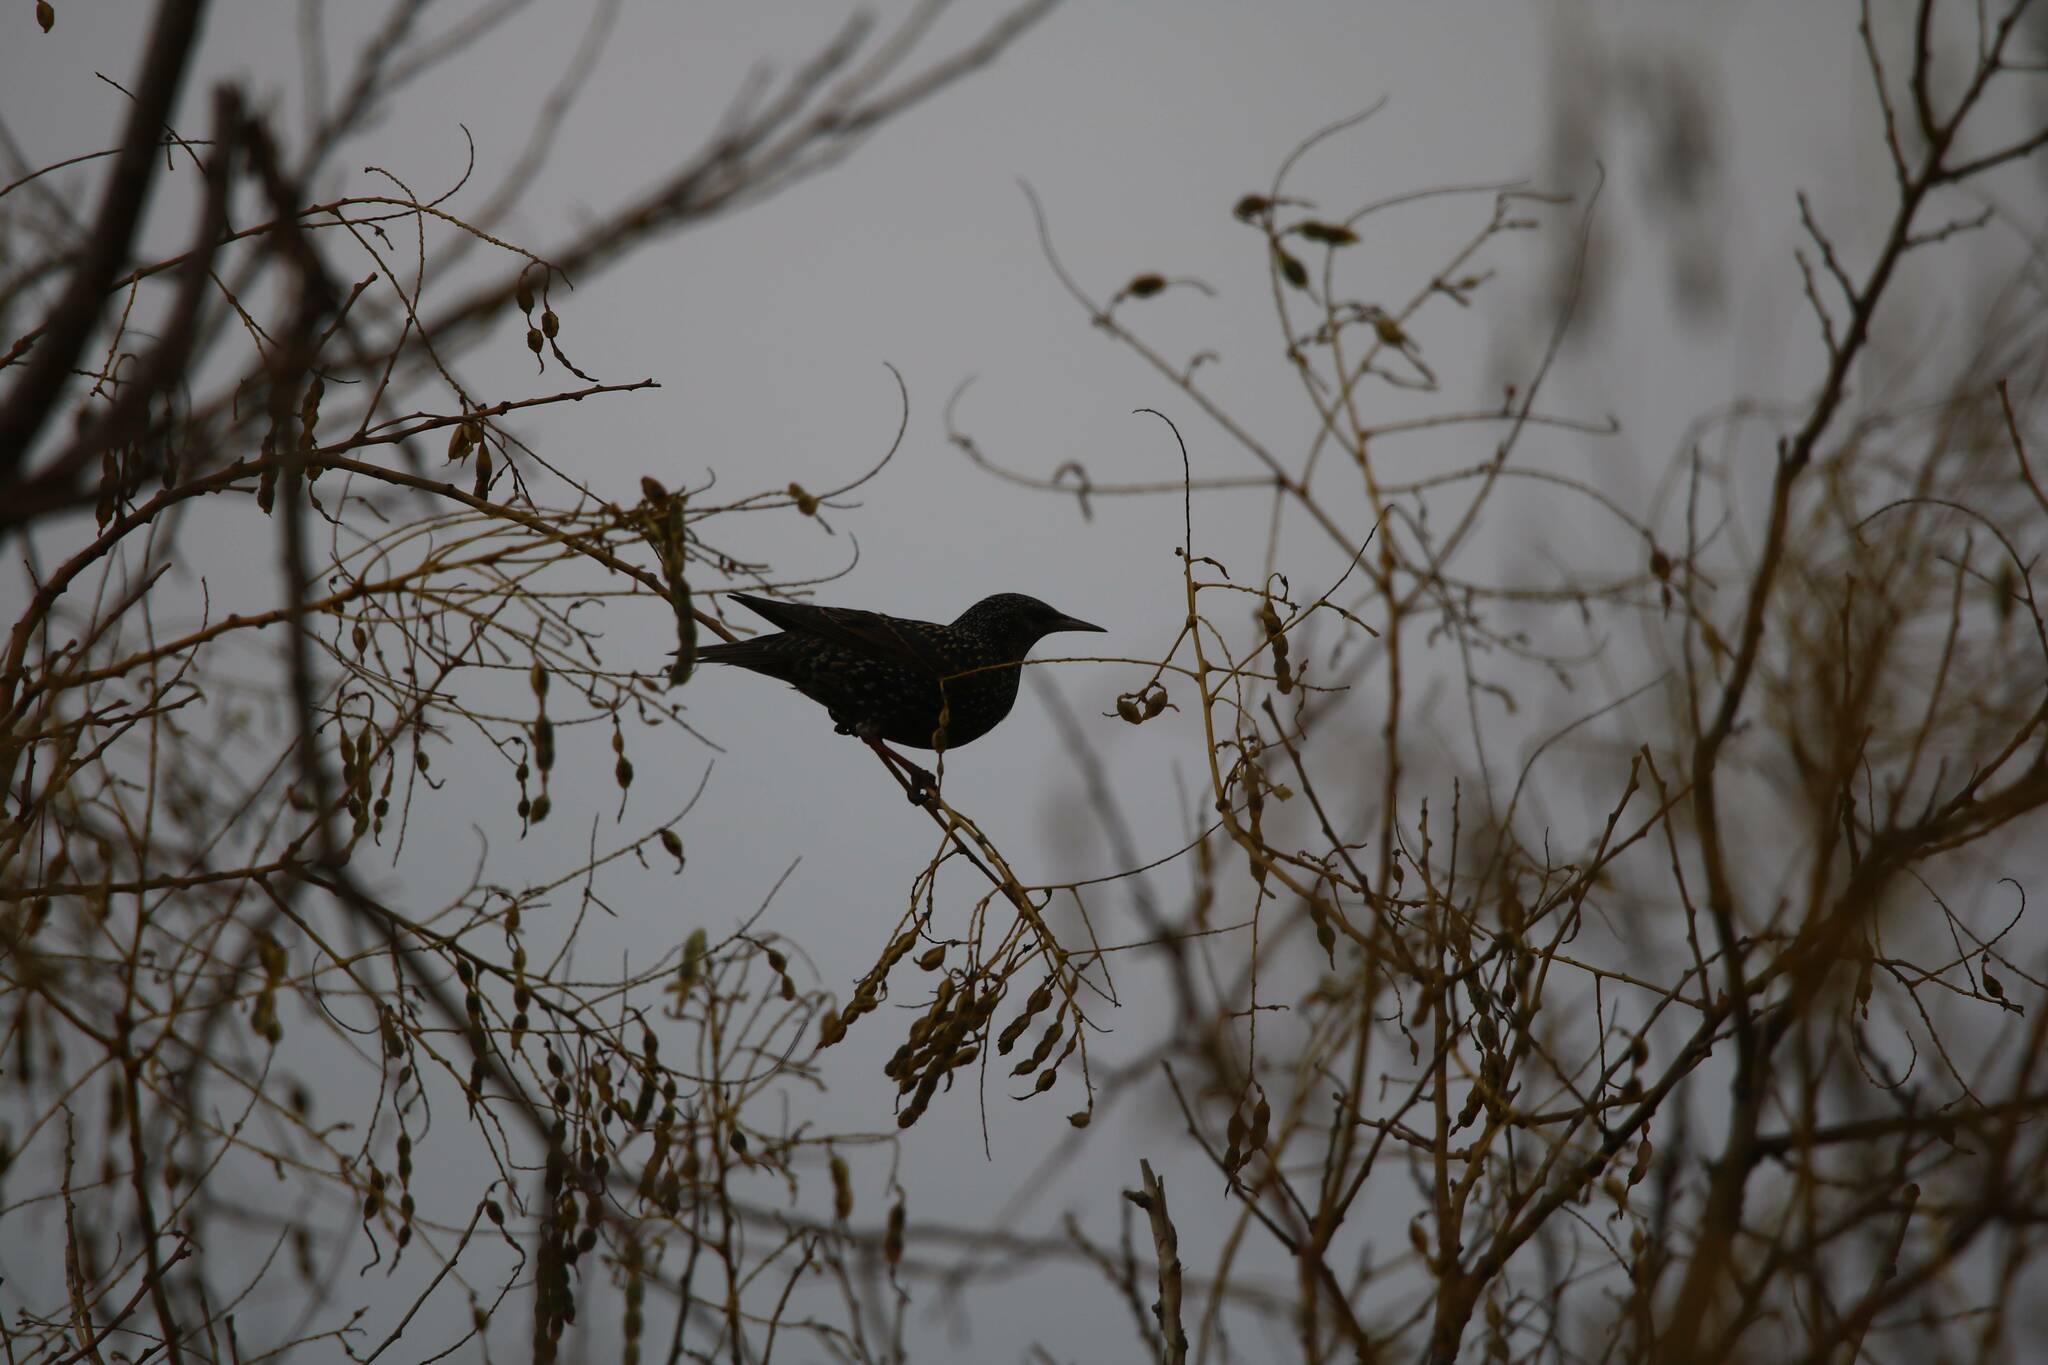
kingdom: Animalia
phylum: Chordata
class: Aves
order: Passeriformes
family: Sturnidae
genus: Sturnus
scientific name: Sturnus vulgaris
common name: Common starling
